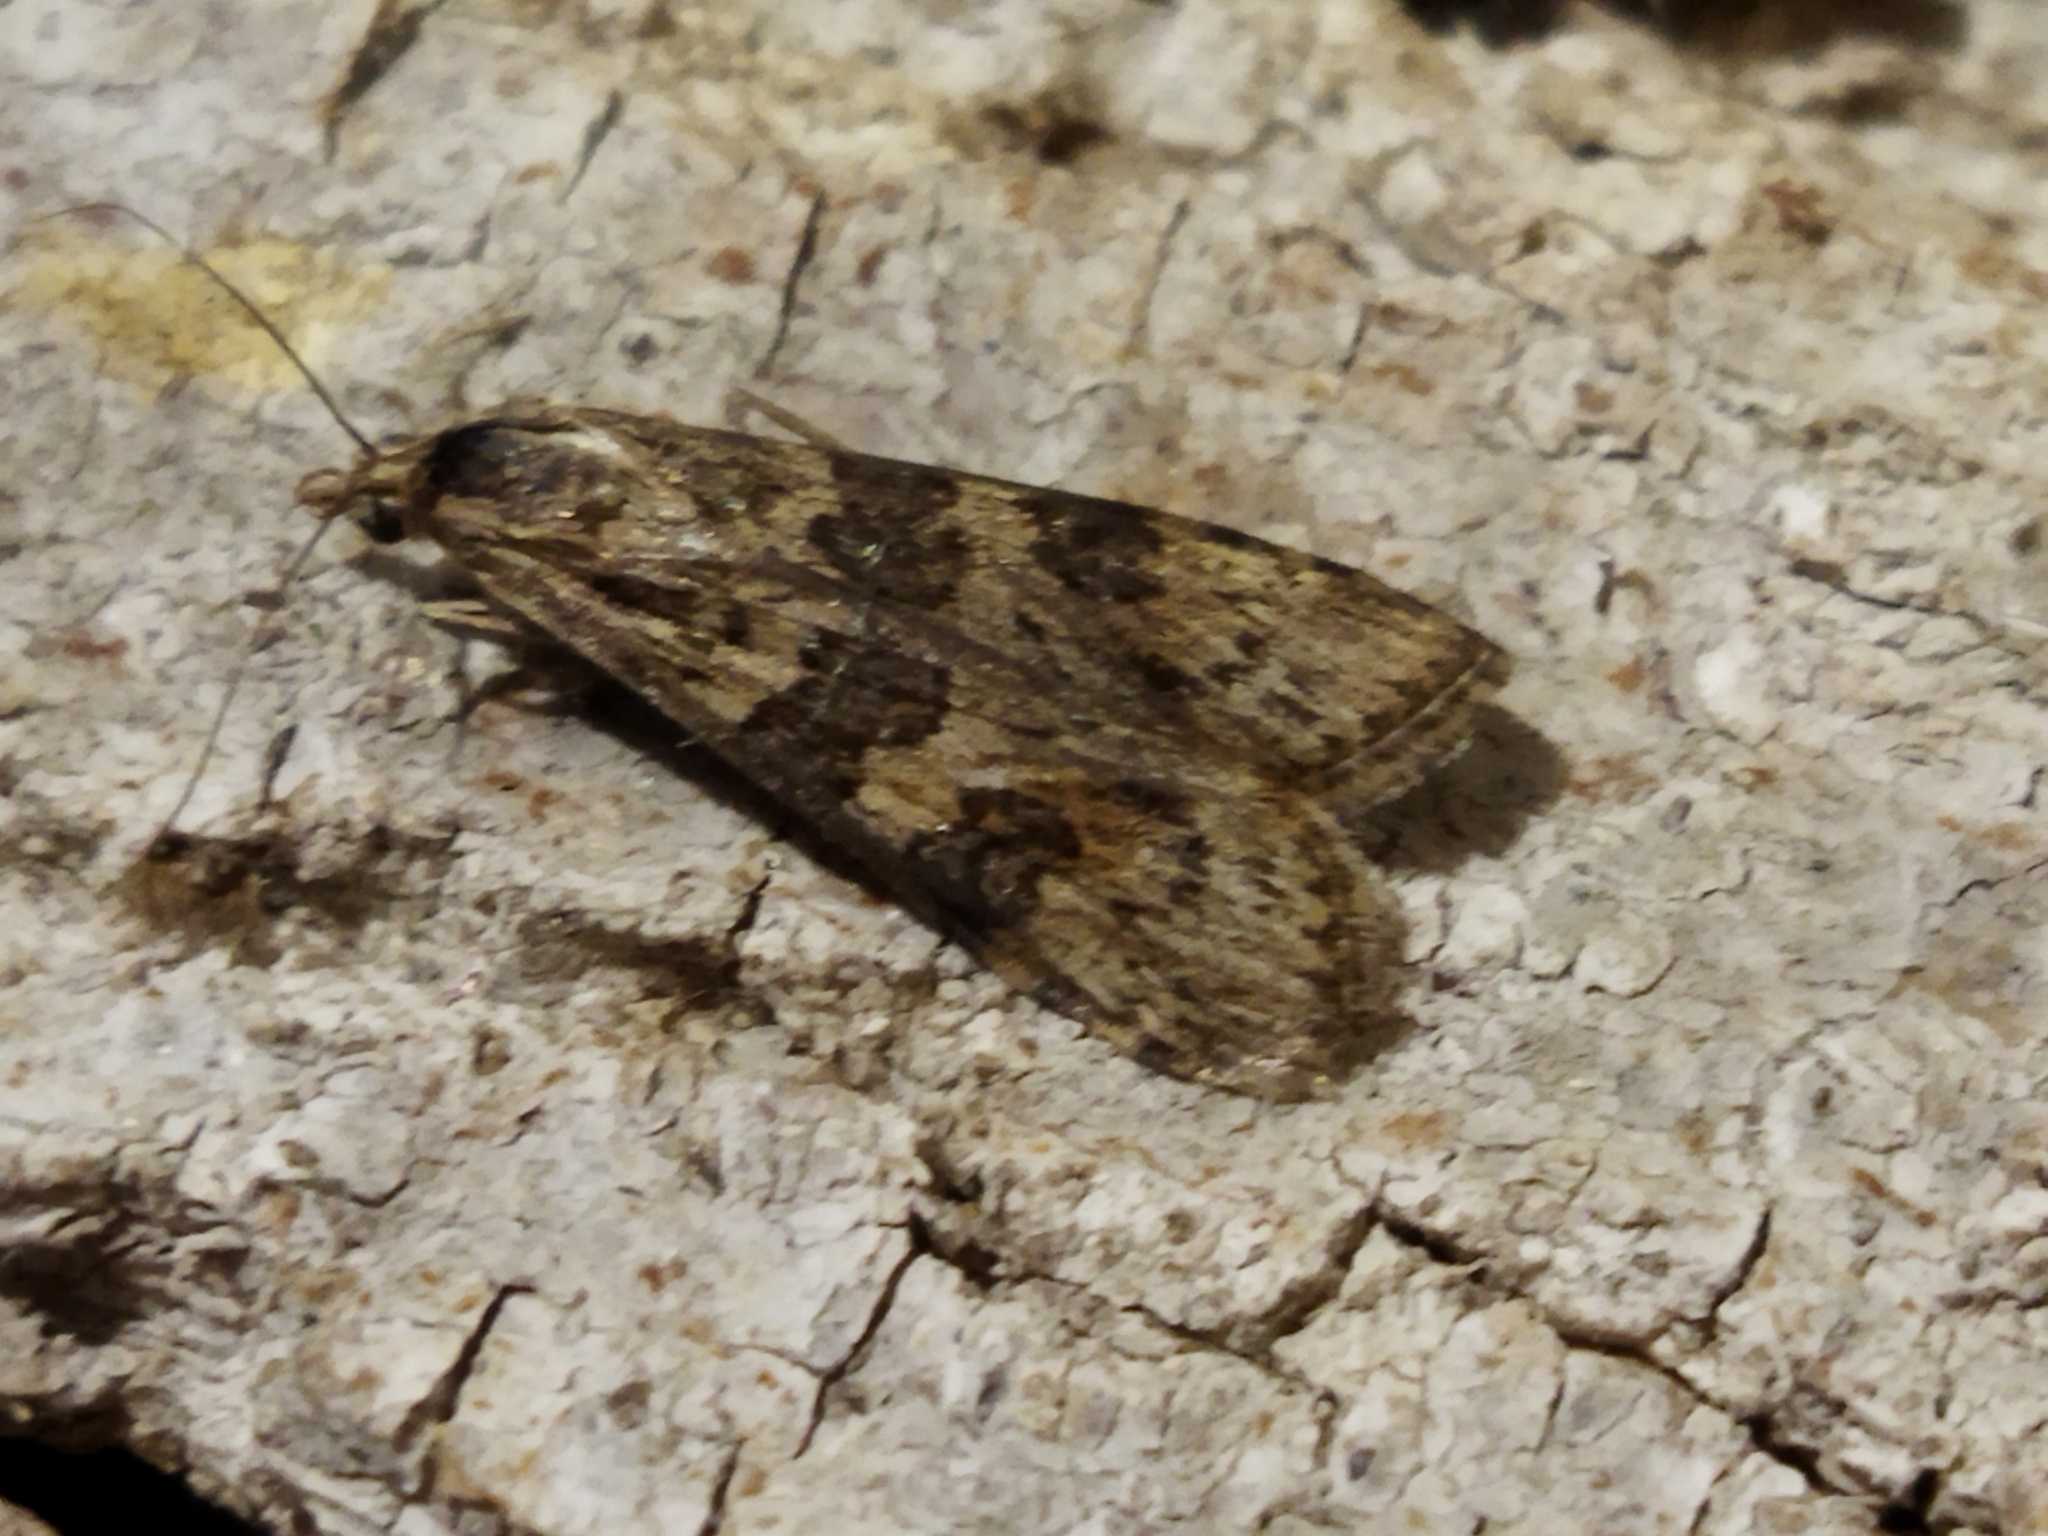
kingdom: Animalia
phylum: Arthropoda
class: Insecta
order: Lepidoptera
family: Crambidae
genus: Nomophila
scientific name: Nomophila noctuella
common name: Rush veneer
